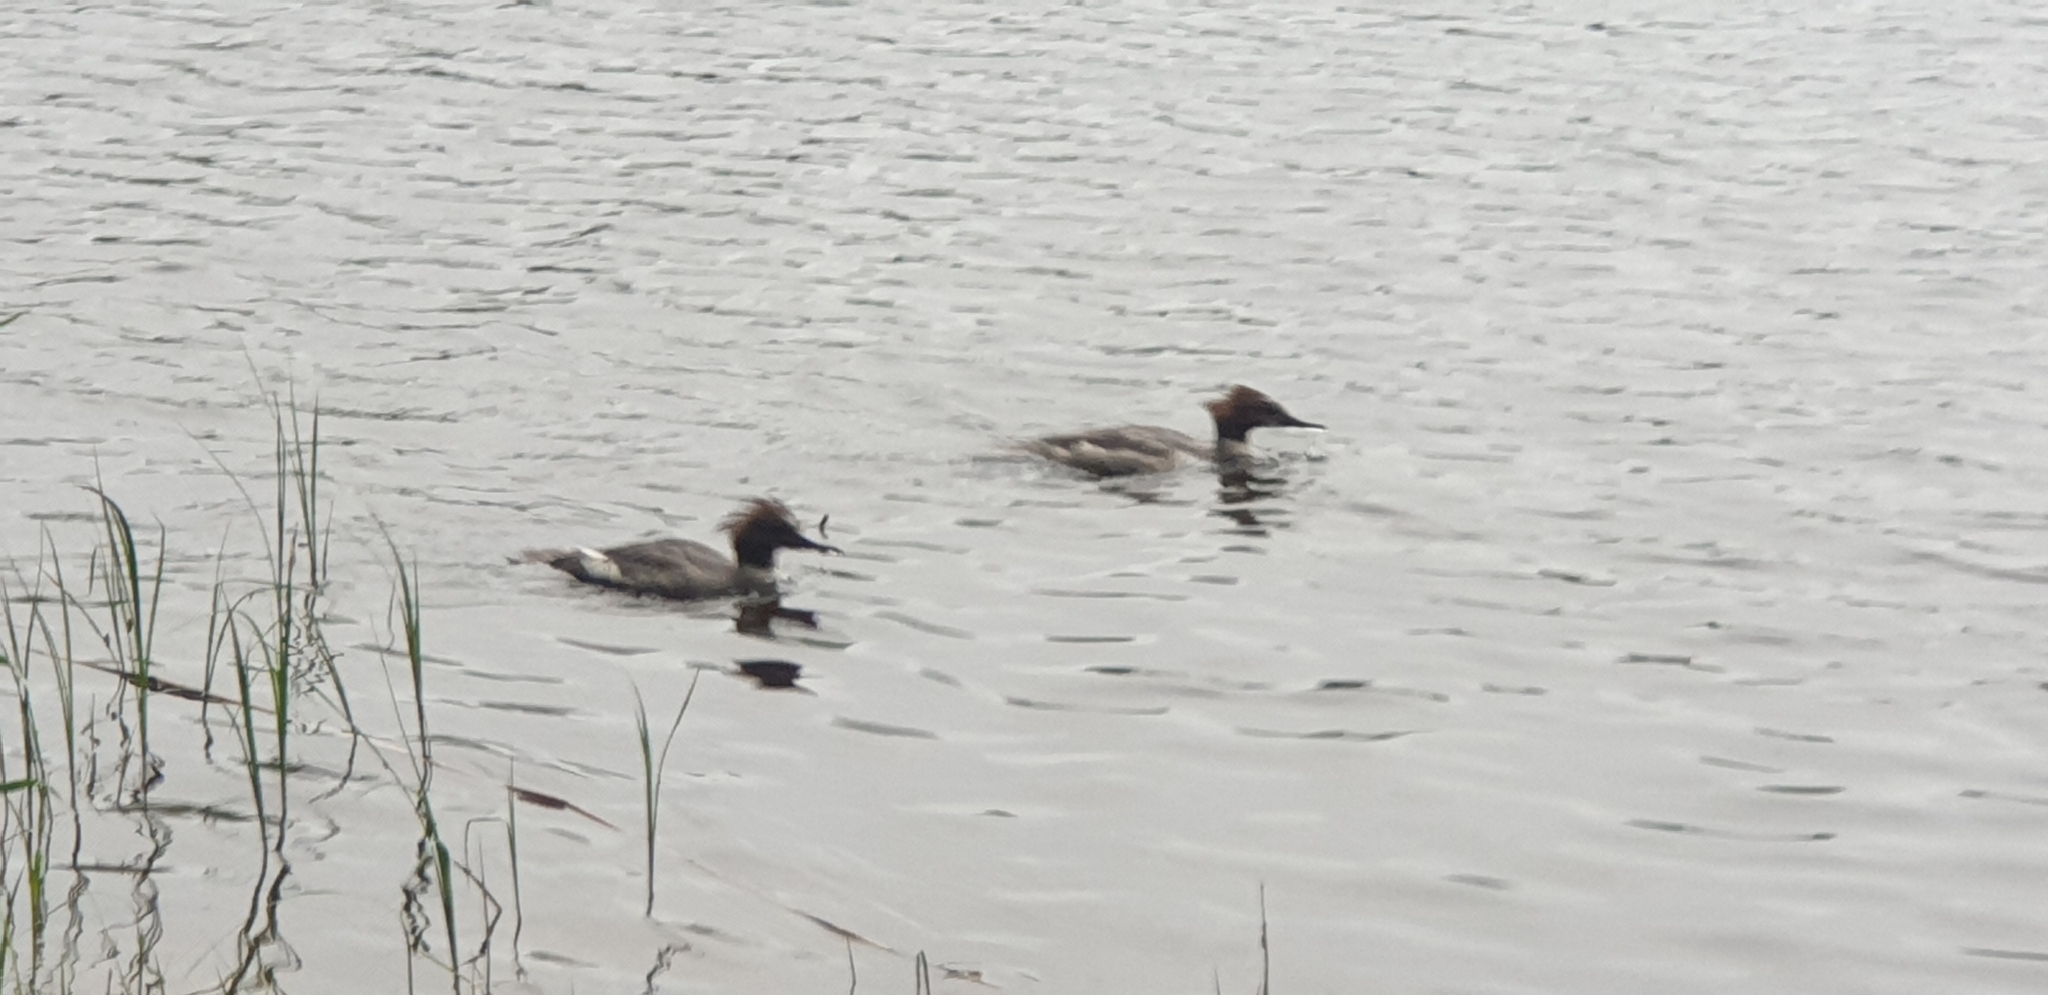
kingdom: Animalia
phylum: Chordata
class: Aves
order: Anseriformes
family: Anatidae
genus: Mergus
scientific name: Mergus merganser
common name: Common merganser
